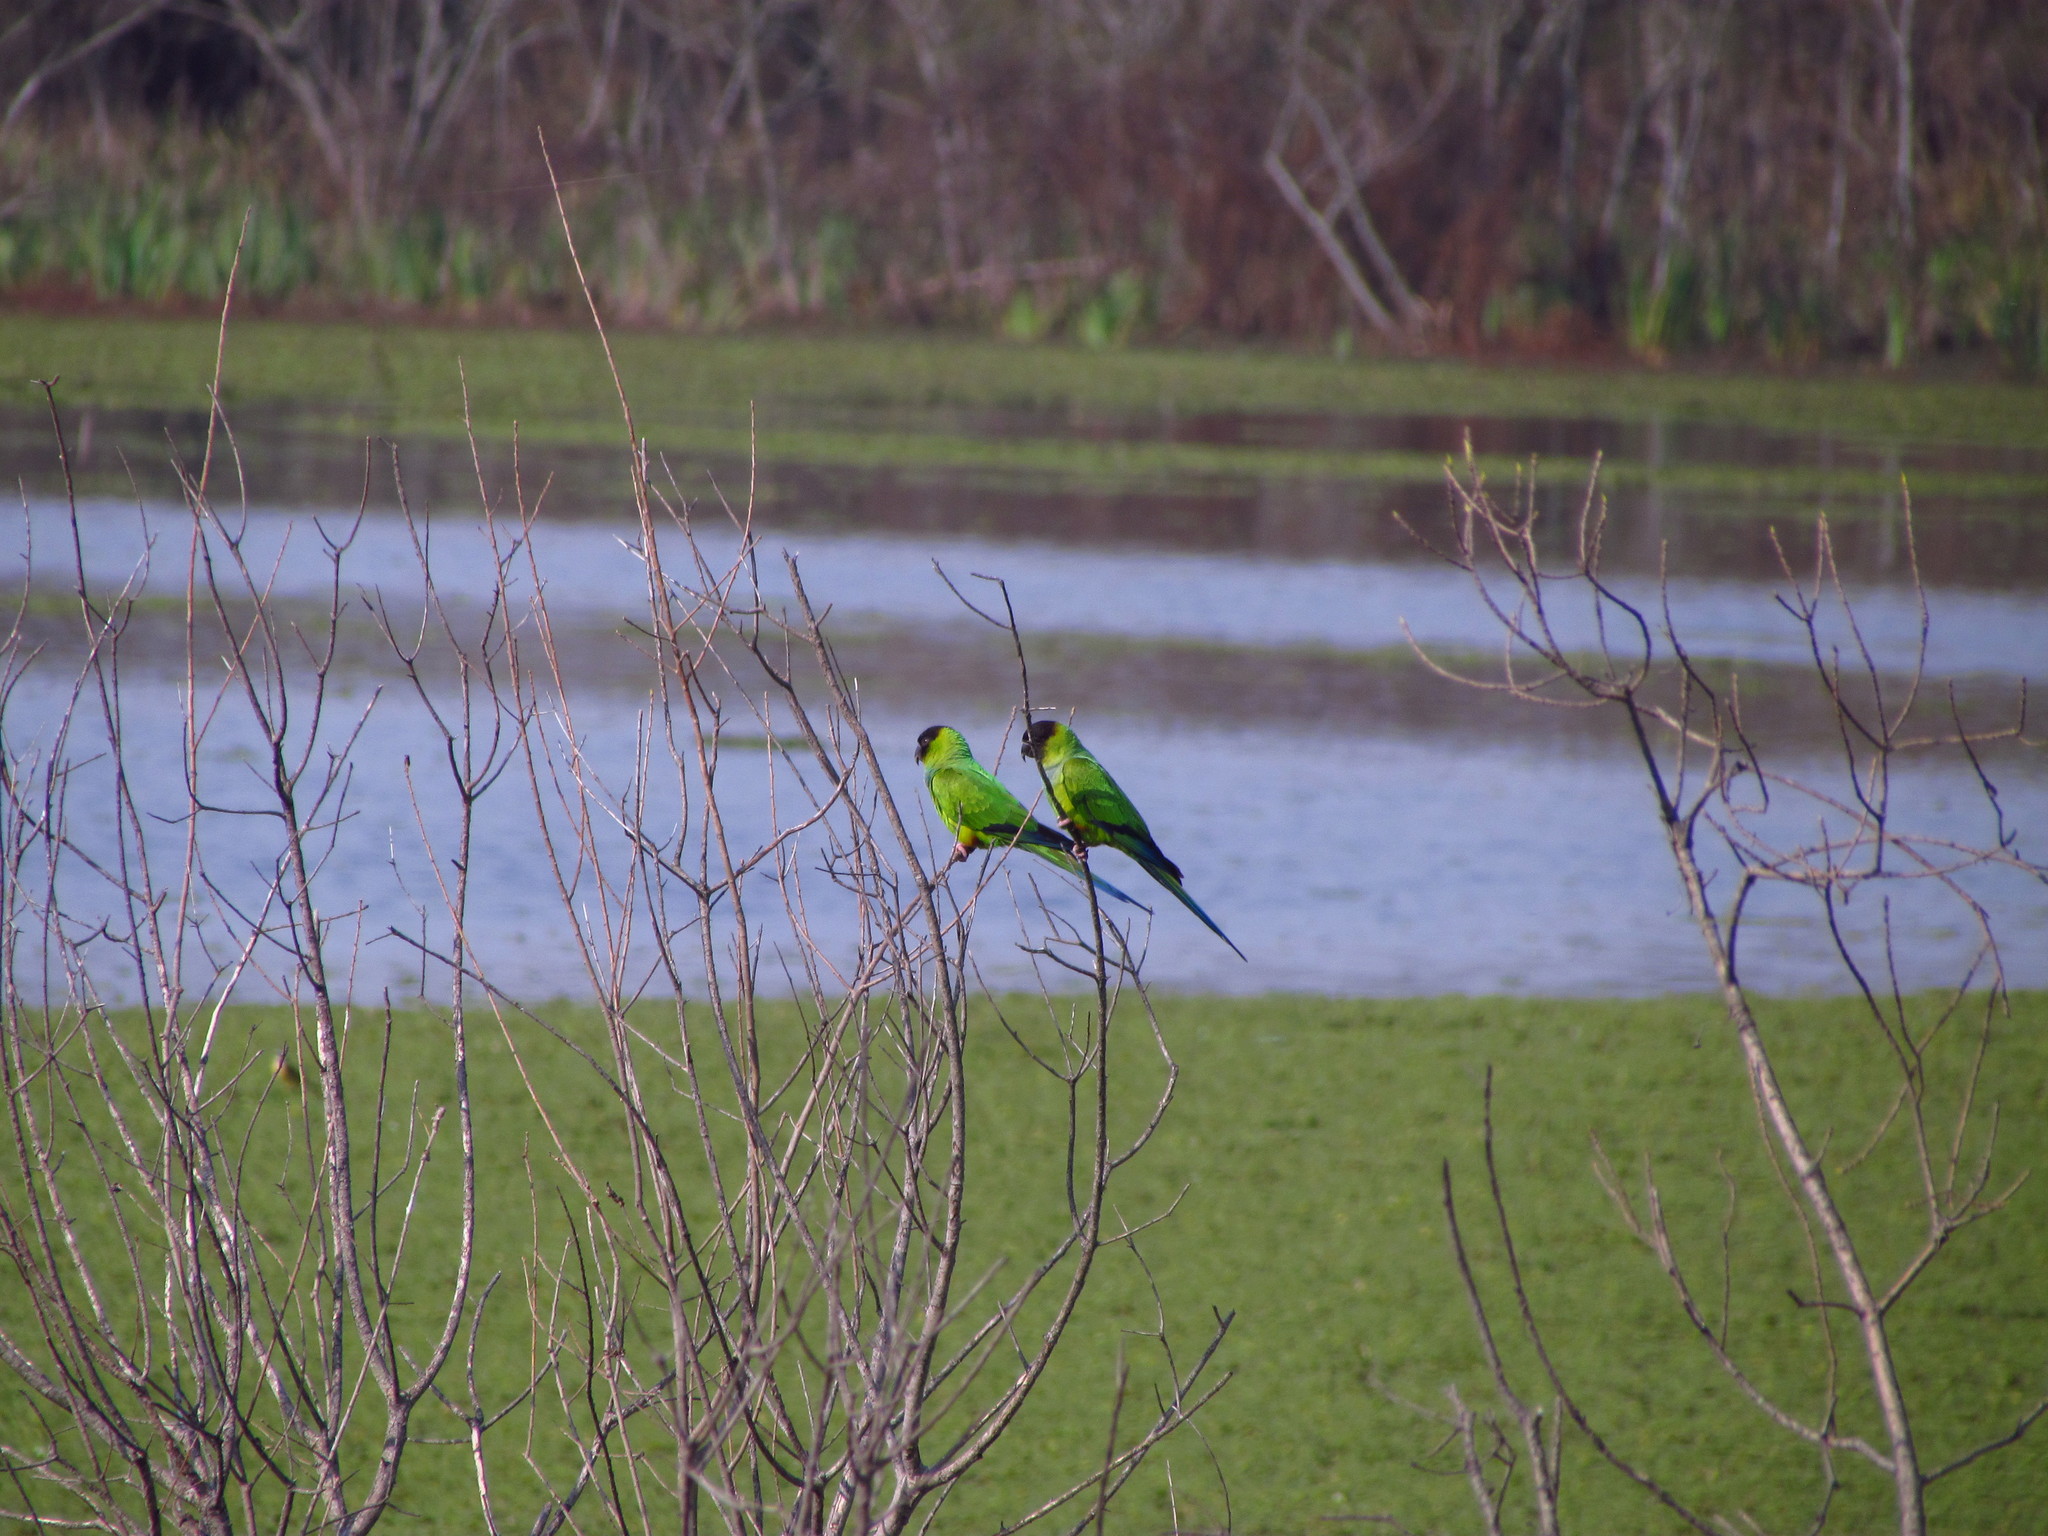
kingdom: Animalia
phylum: Chordata
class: Aves
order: Psittaciformes
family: Psittacidae
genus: Nandayus
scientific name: Nandayus nenday
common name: Nanday parakeet
